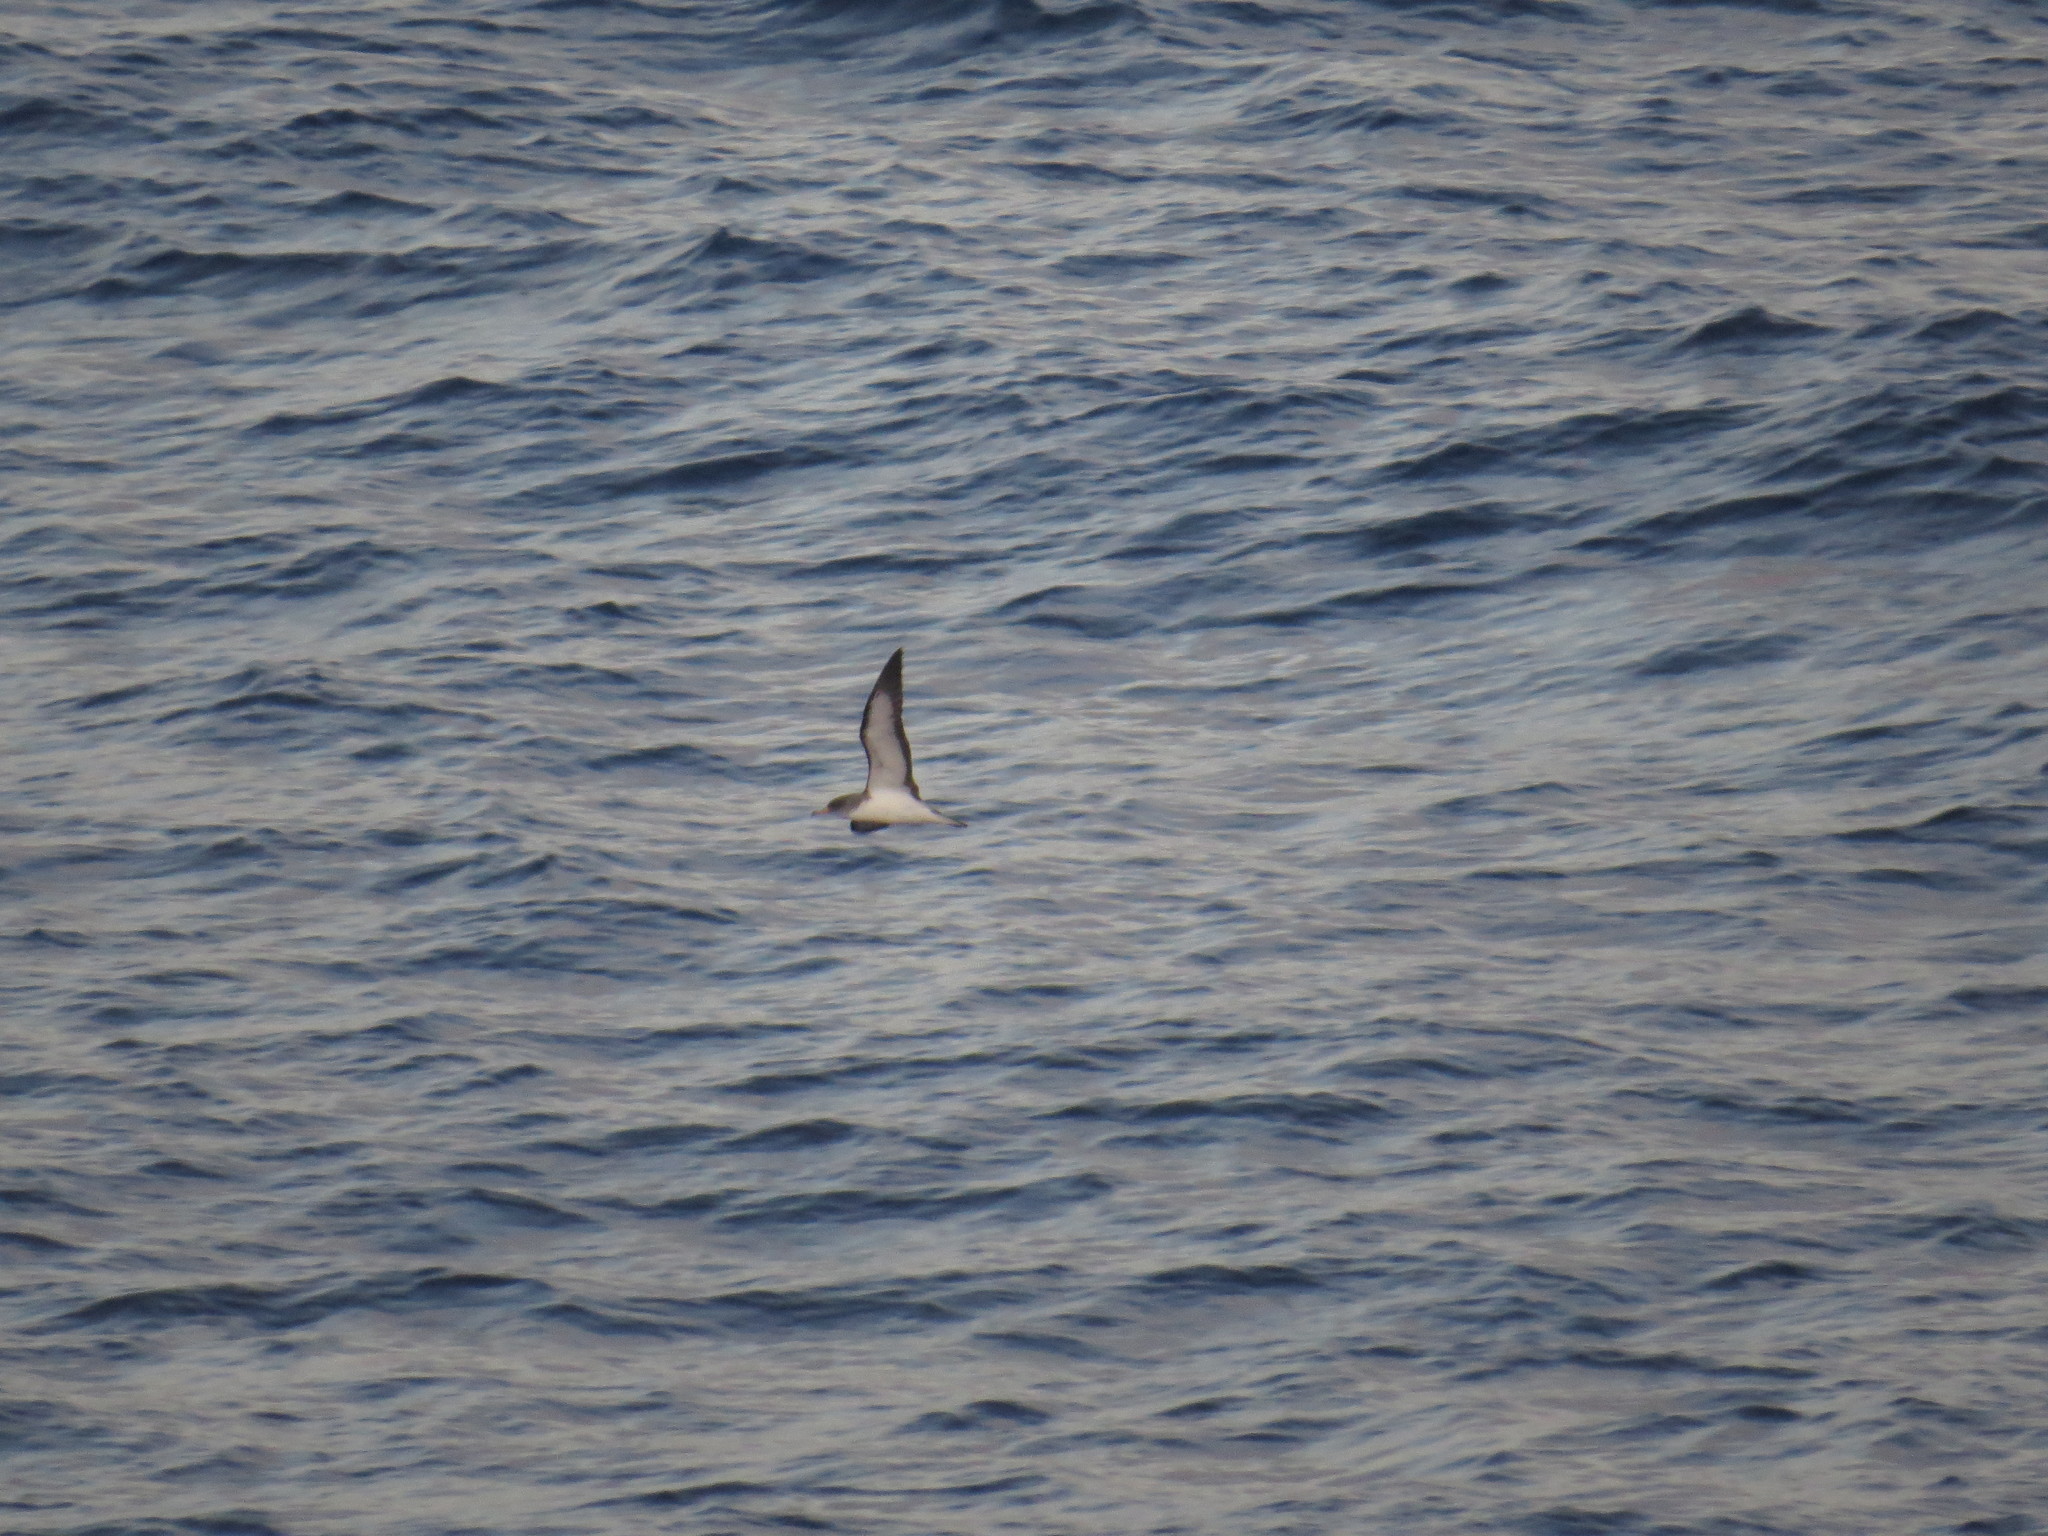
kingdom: Animalia
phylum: Chordata
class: Aves
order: Procellariiformes
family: Procellariidae
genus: Calonectris
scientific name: Calonectris diomedea
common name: Cory's shearwater
